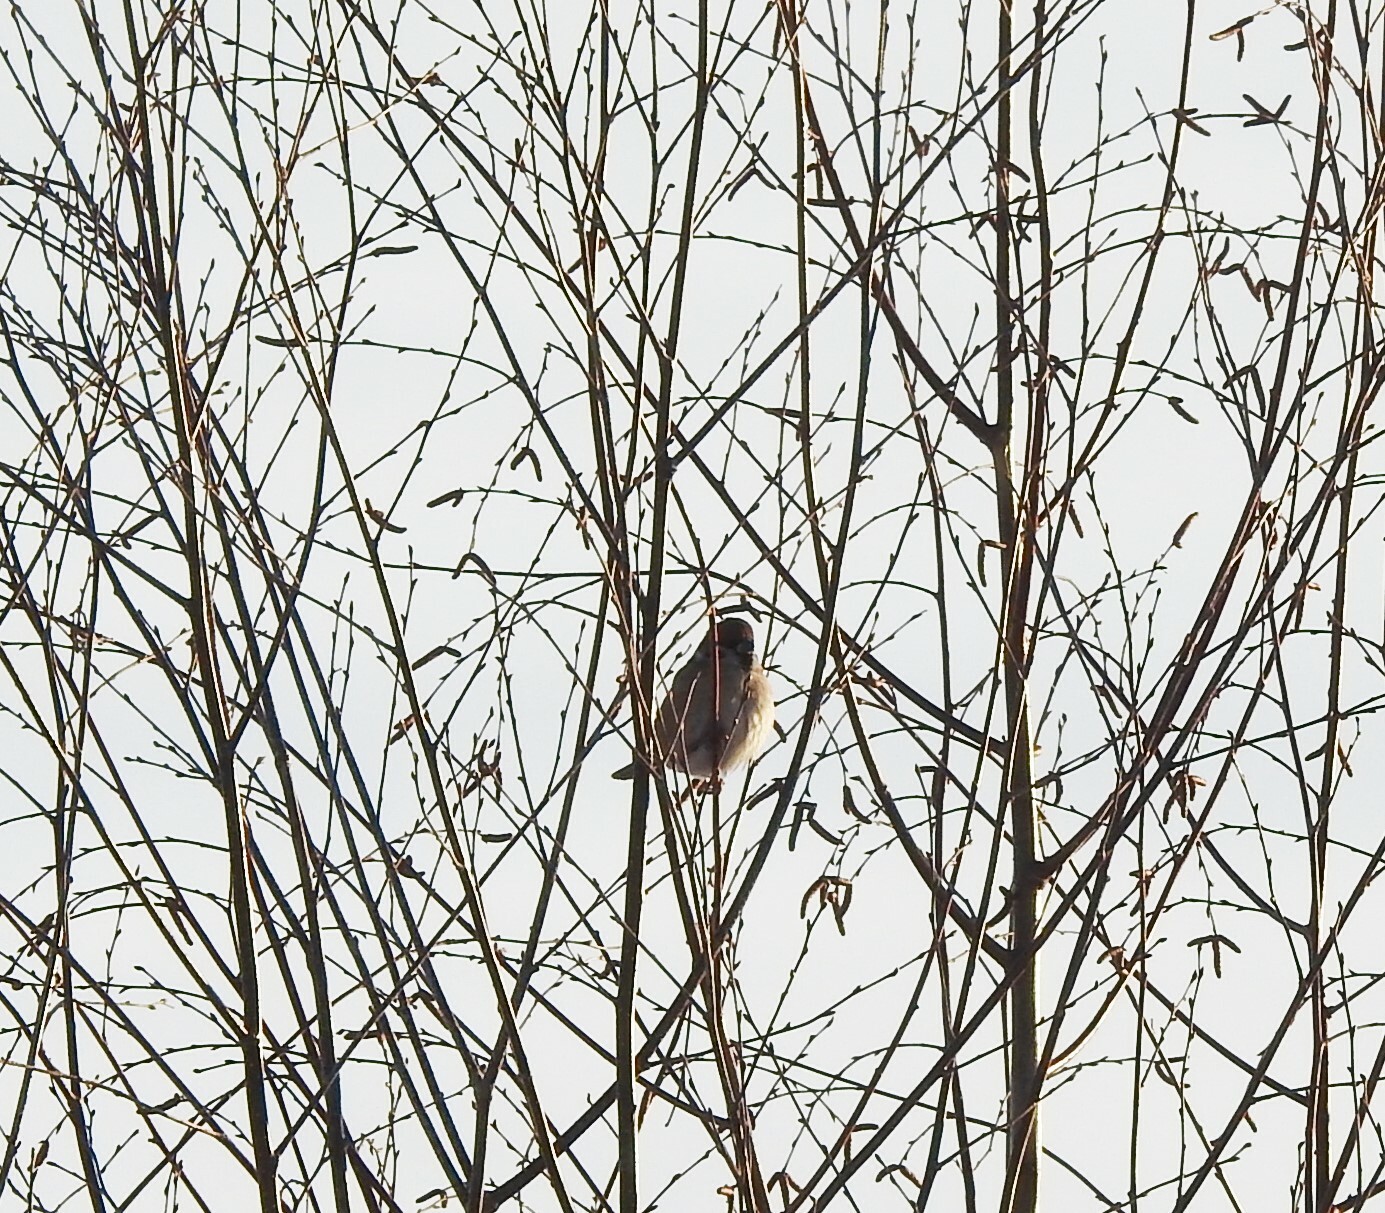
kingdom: Animalia
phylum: Chordata
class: Aves
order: Passeriformes
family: Passeridae
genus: Passer
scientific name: Passer montanus
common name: Eurasian tree sparrow
